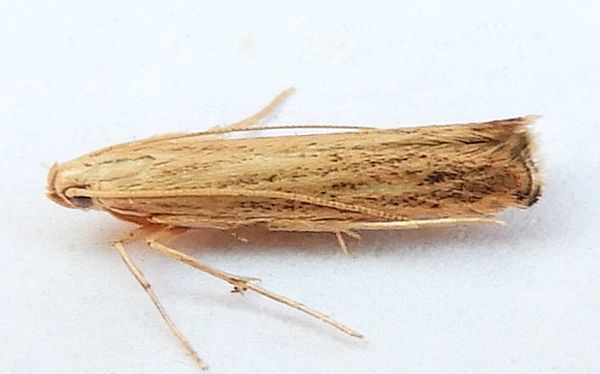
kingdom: Animalia
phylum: Arthropoda
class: Insecta
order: Lepidoptera
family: Coleophoridae
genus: Duospina
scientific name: Duospina trichella
